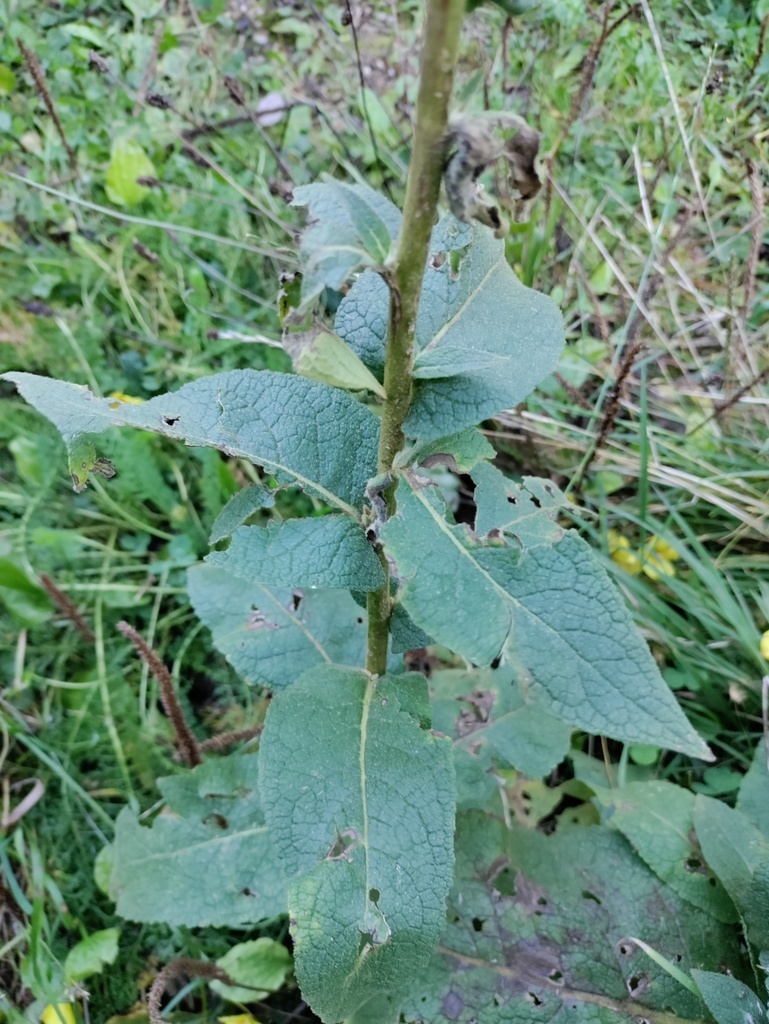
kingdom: Plantae
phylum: Tracheophyta
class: Magnoliopsida
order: Lamiales
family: Scrophulariaceae
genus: Verbascum
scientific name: Verbascum phlomoides
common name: Orange mullein
